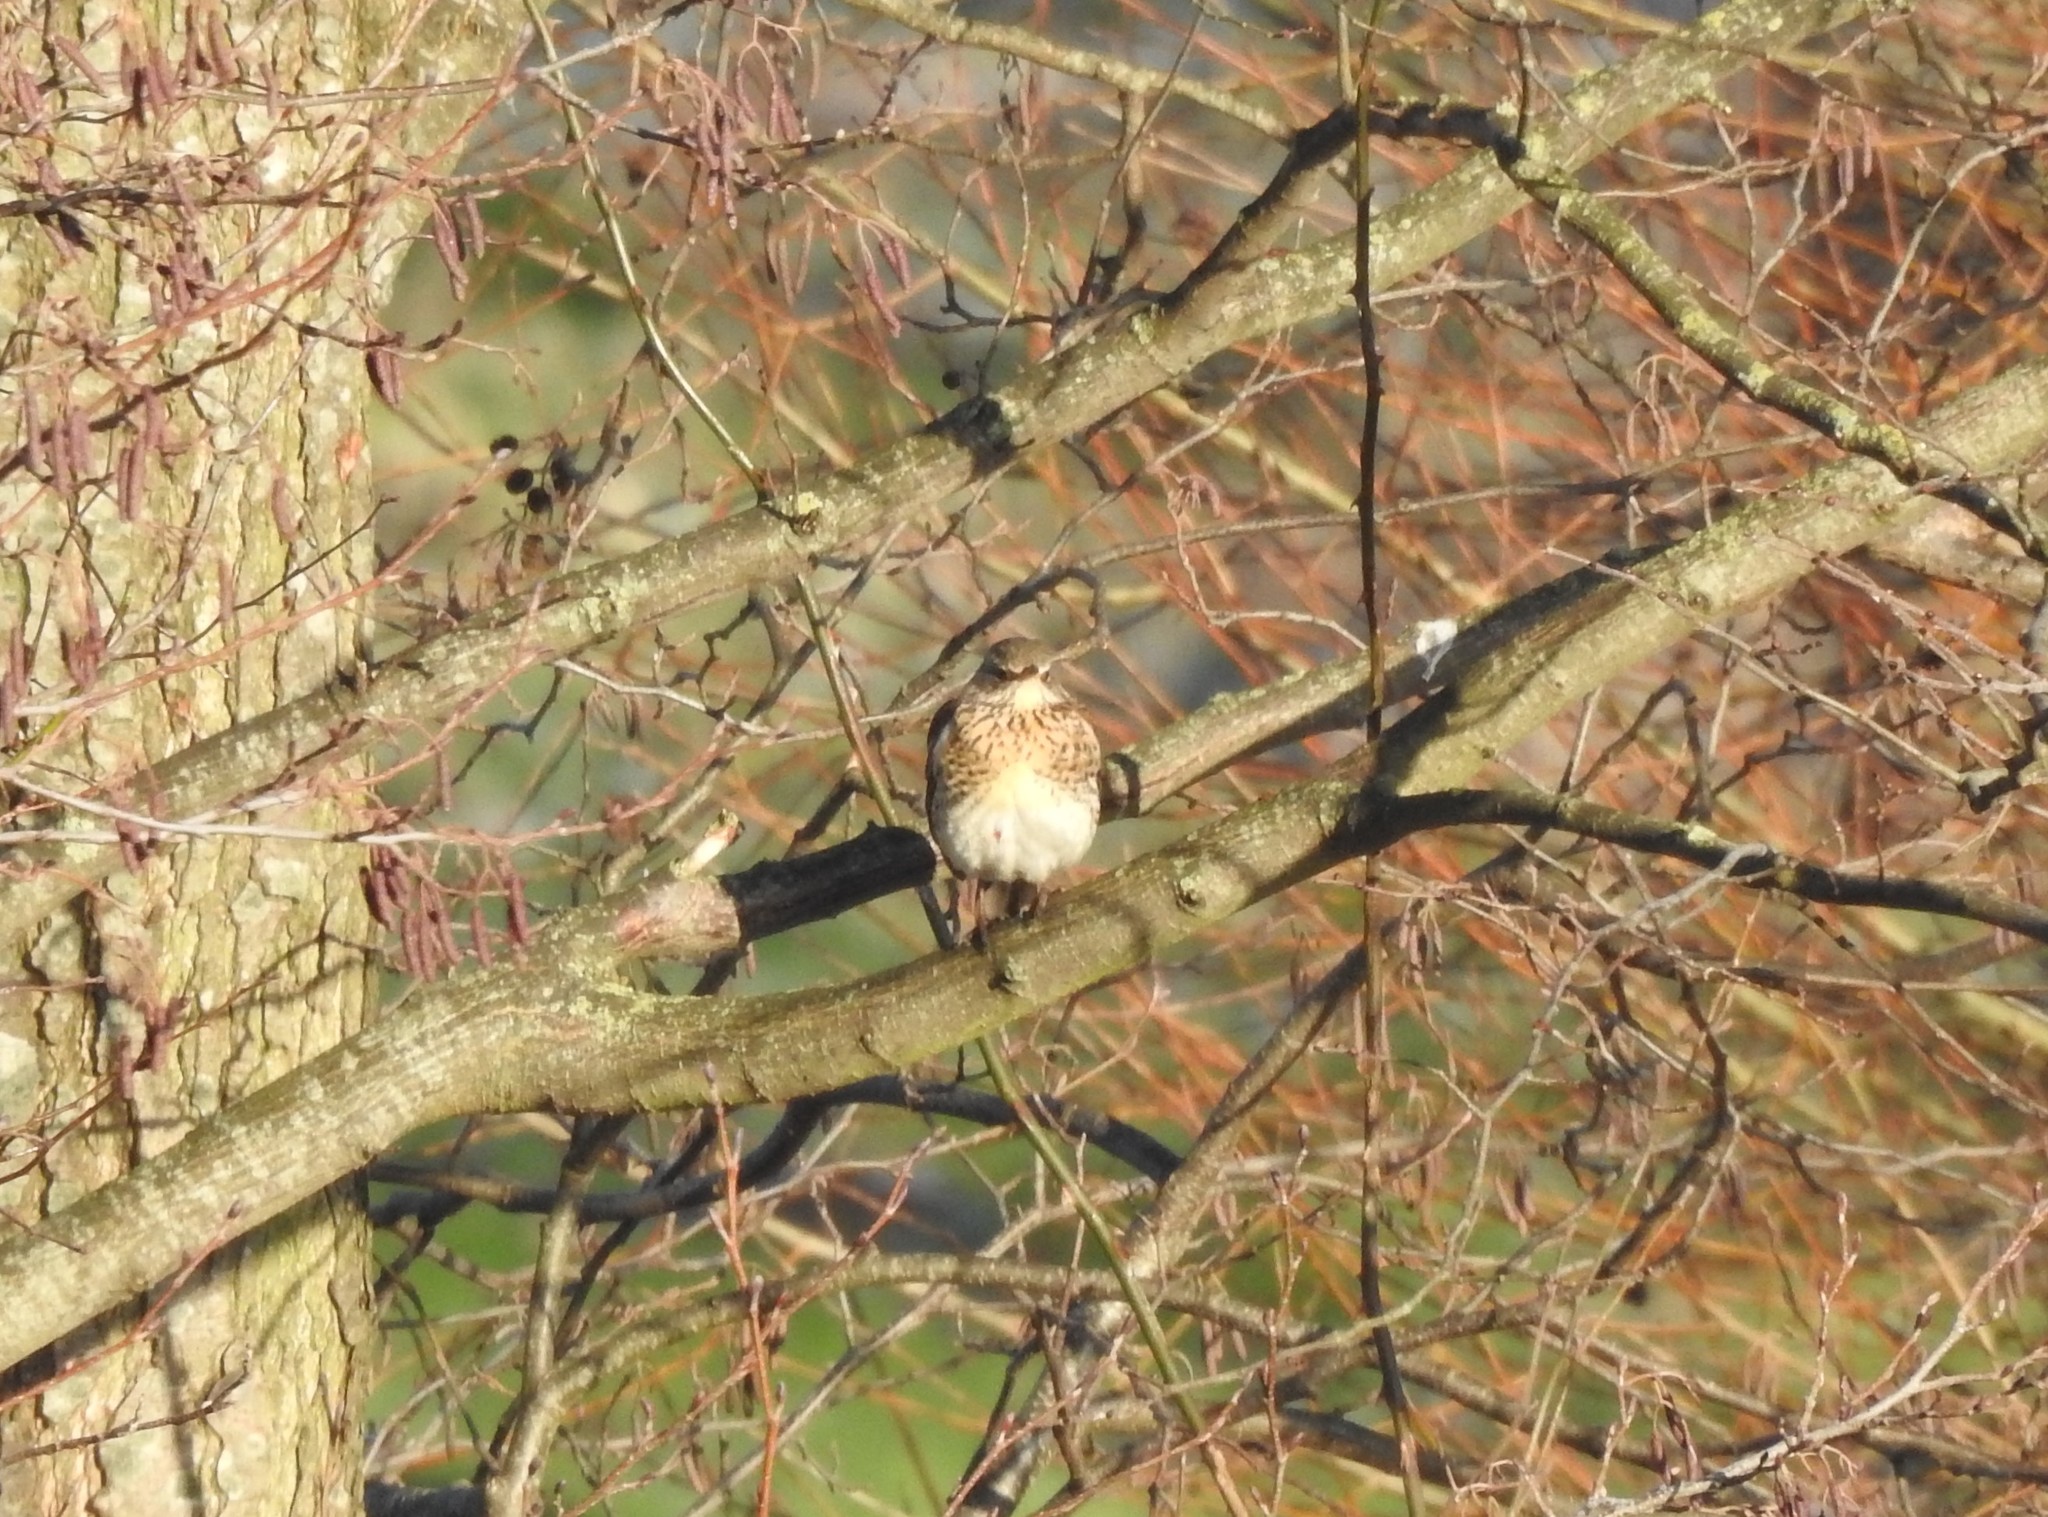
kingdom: Animalia
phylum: Chordata
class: Aves
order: Passeriformes
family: Turdidae
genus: Turdus
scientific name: Turdus pilaris
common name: Fieldfare
